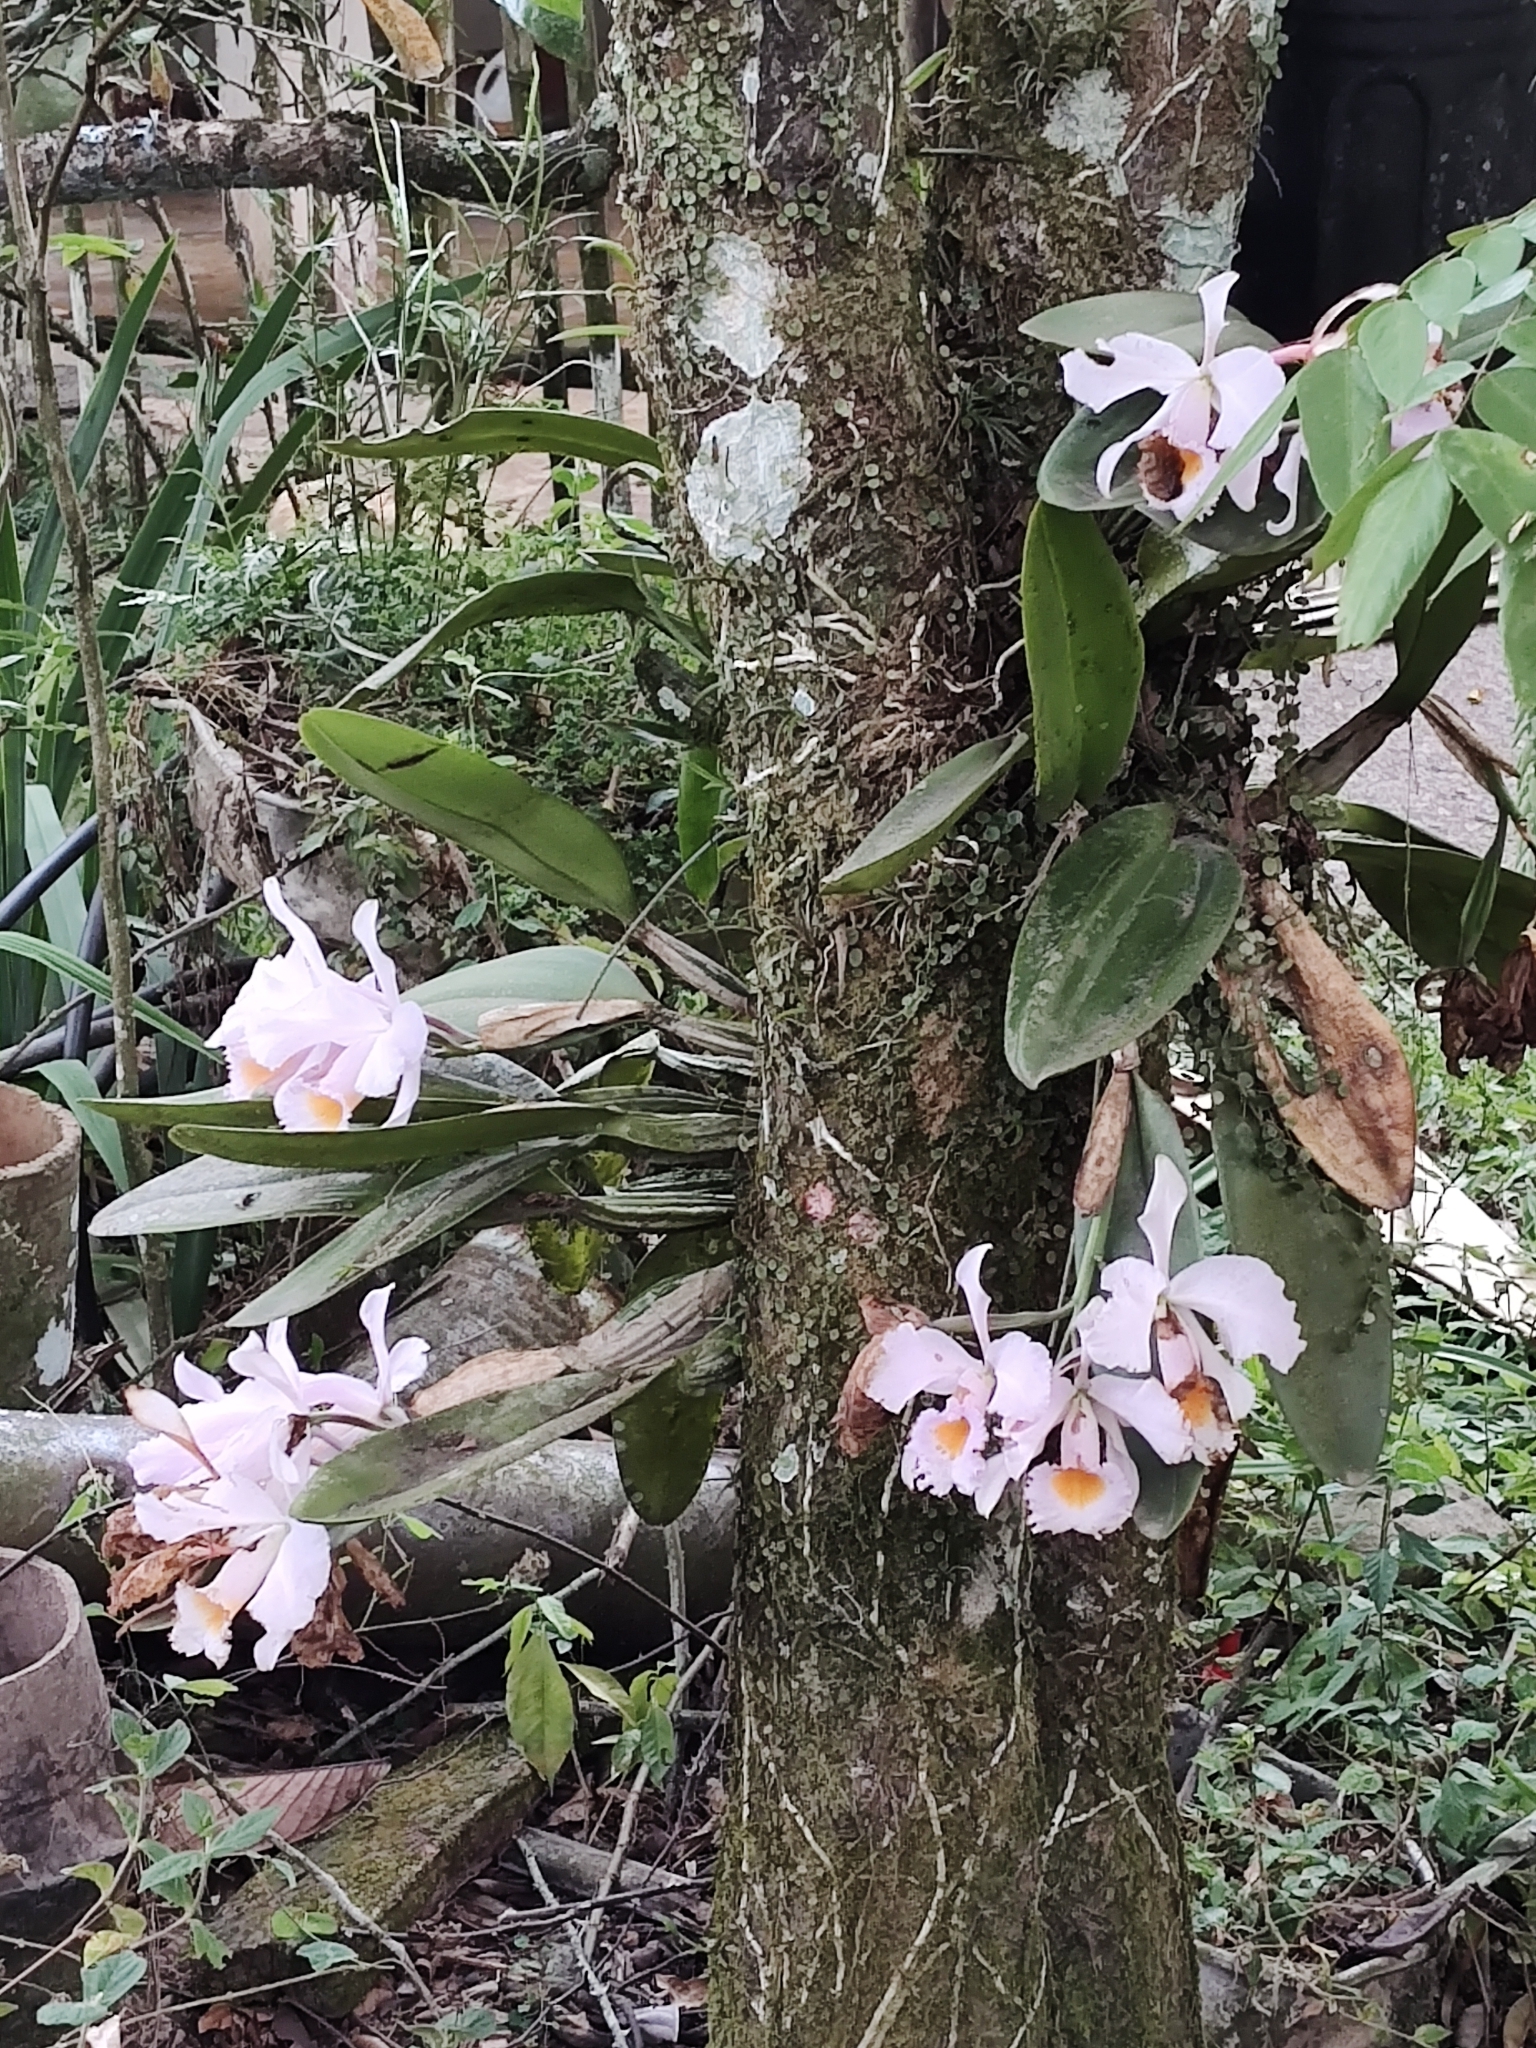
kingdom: Plantae
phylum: Tracheophyta
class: Liliopsida
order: Asparagales
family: Orchidaceae
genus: Cattleya
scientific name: Cattleya schroederae
